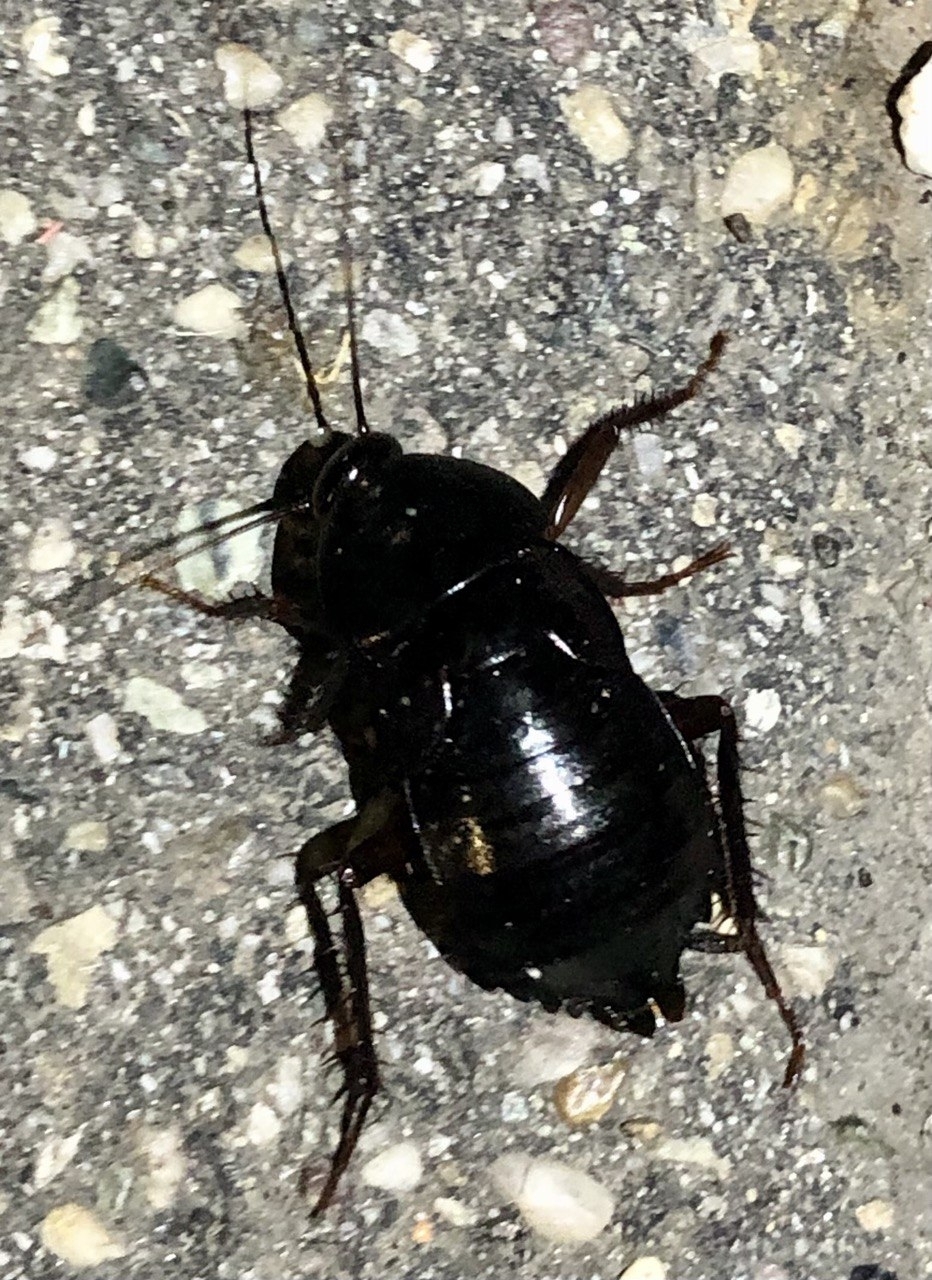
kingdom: Animalia
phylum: Arthropoda
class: Insecta
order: Blattodea
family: Blattidae
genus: Blatta
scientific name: Blatta orientalis
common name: Oriental cockroach
